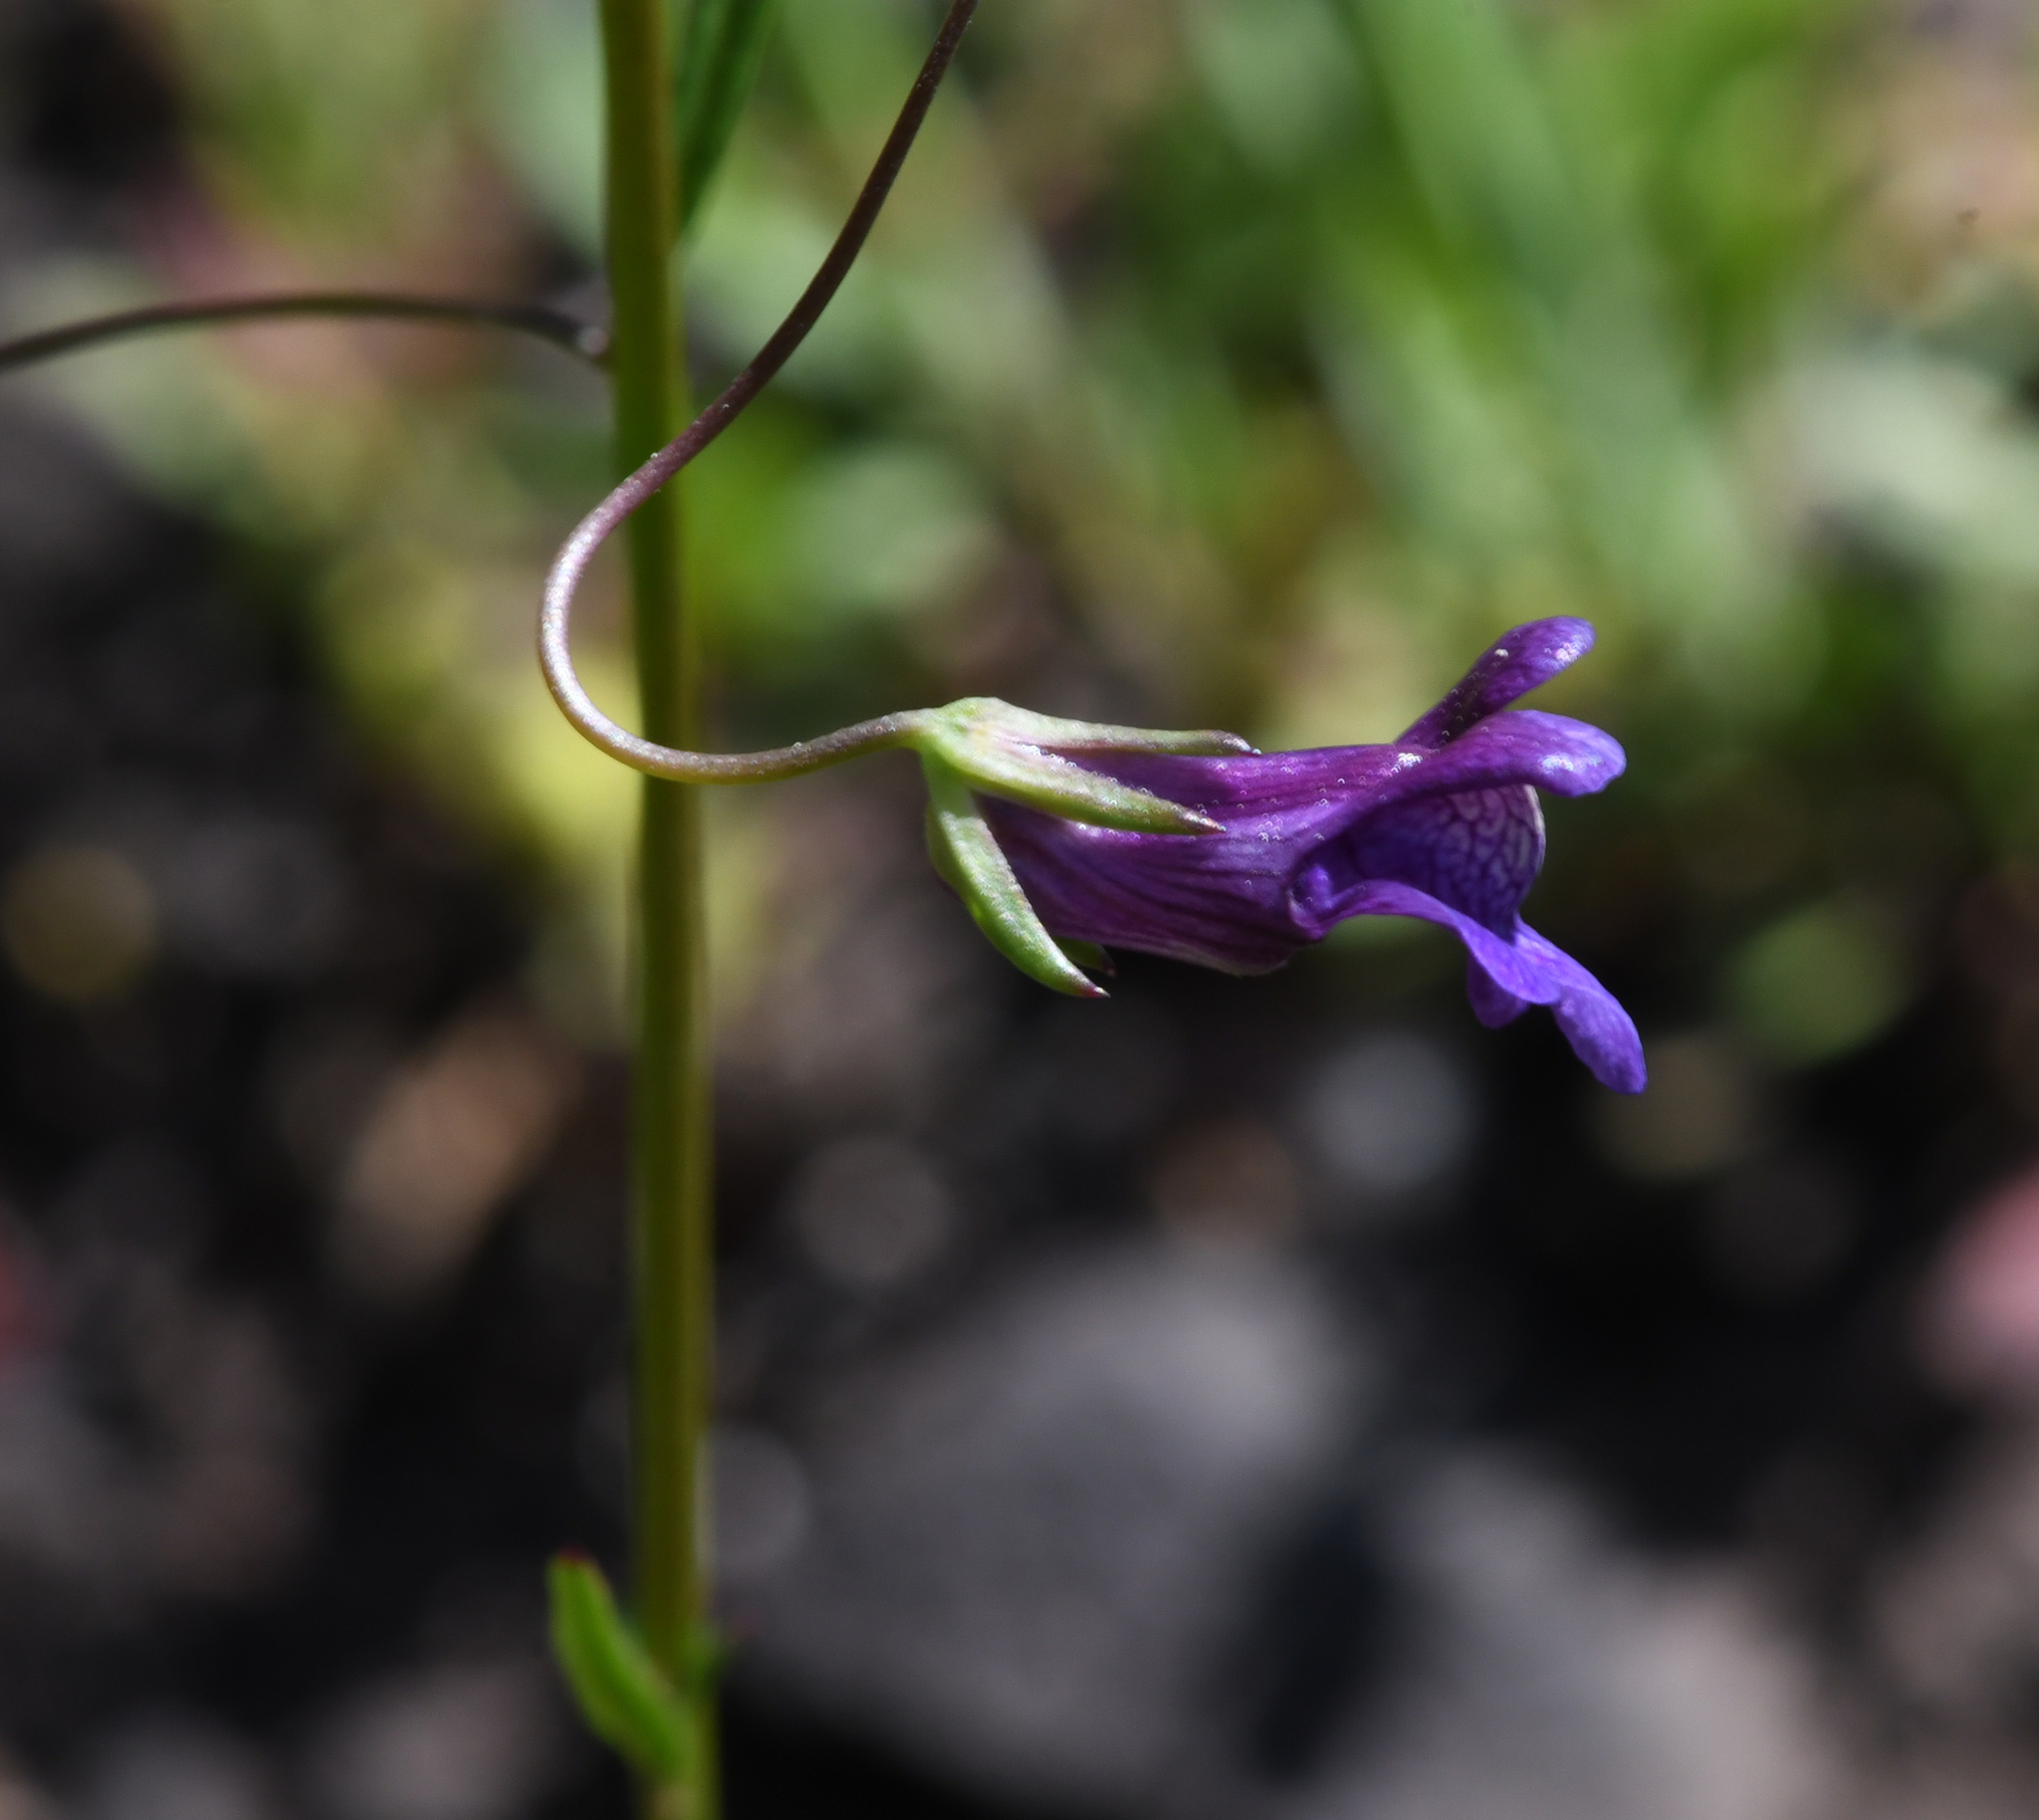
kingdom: Plantae
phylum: Tracheophyta
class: Magnoliopsida
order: Lamiales
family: Plantaginaceae
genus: Neogaerrhinum
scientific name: Neogaerrhinum strictum
